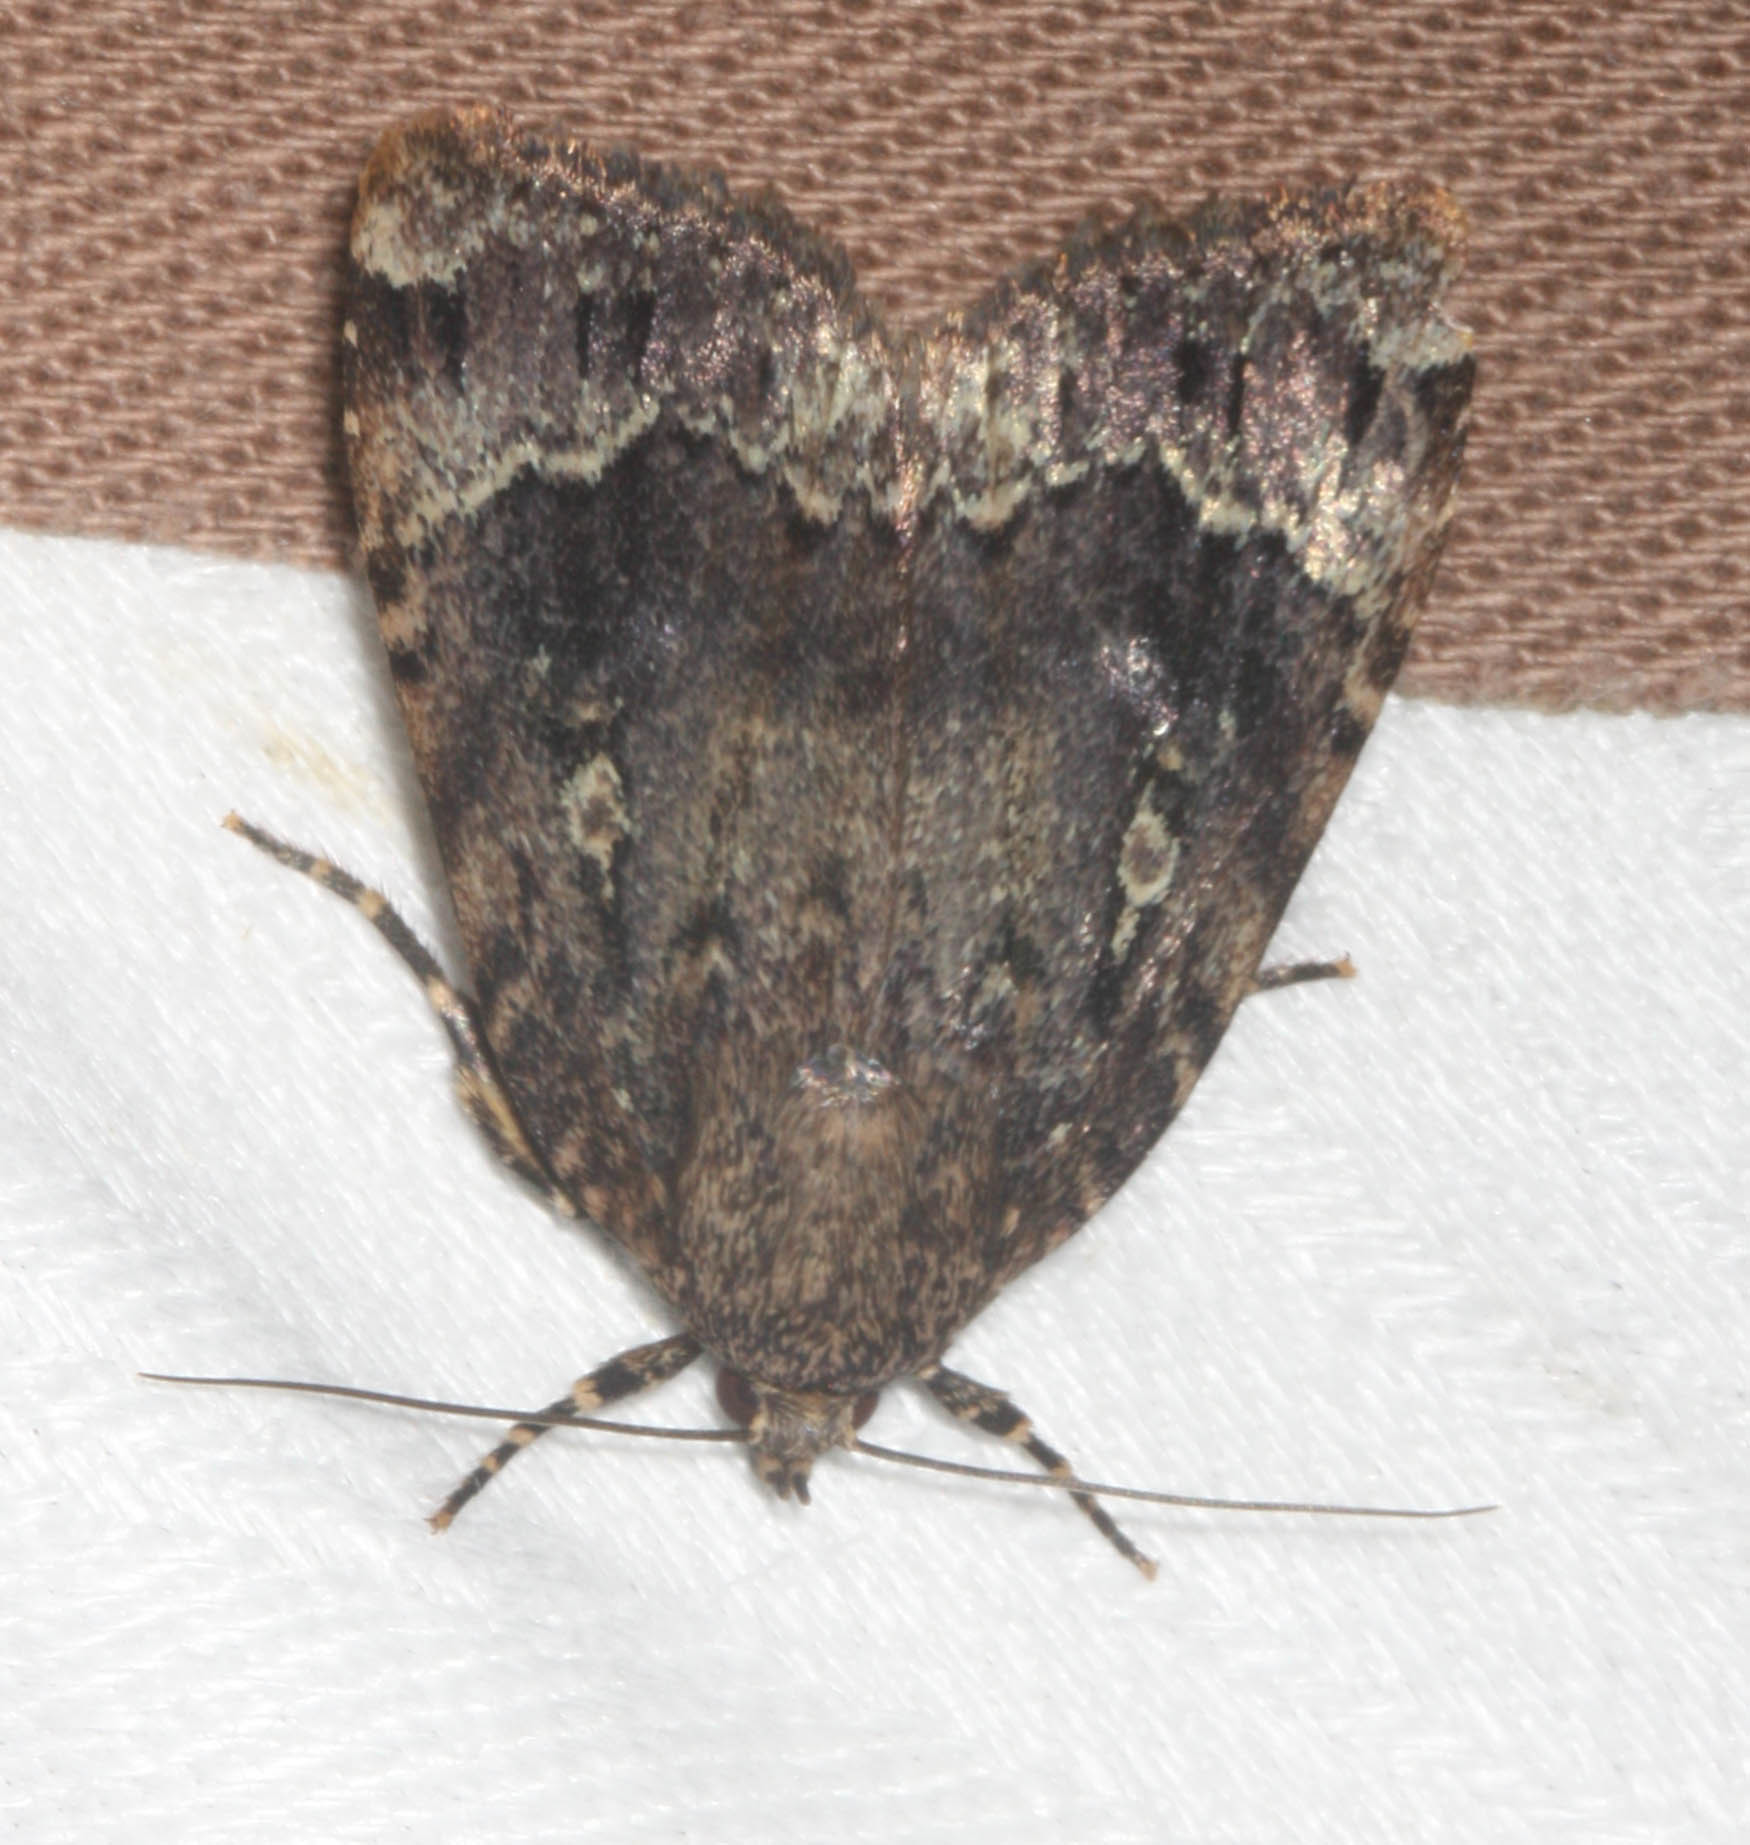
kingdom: Animalia
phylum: Arthropoda
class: Insecta
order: Lepidoptera
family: Noctuidae
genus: Amphipyra
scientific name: Amphipyra pyramidoides
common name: American copper underwing
